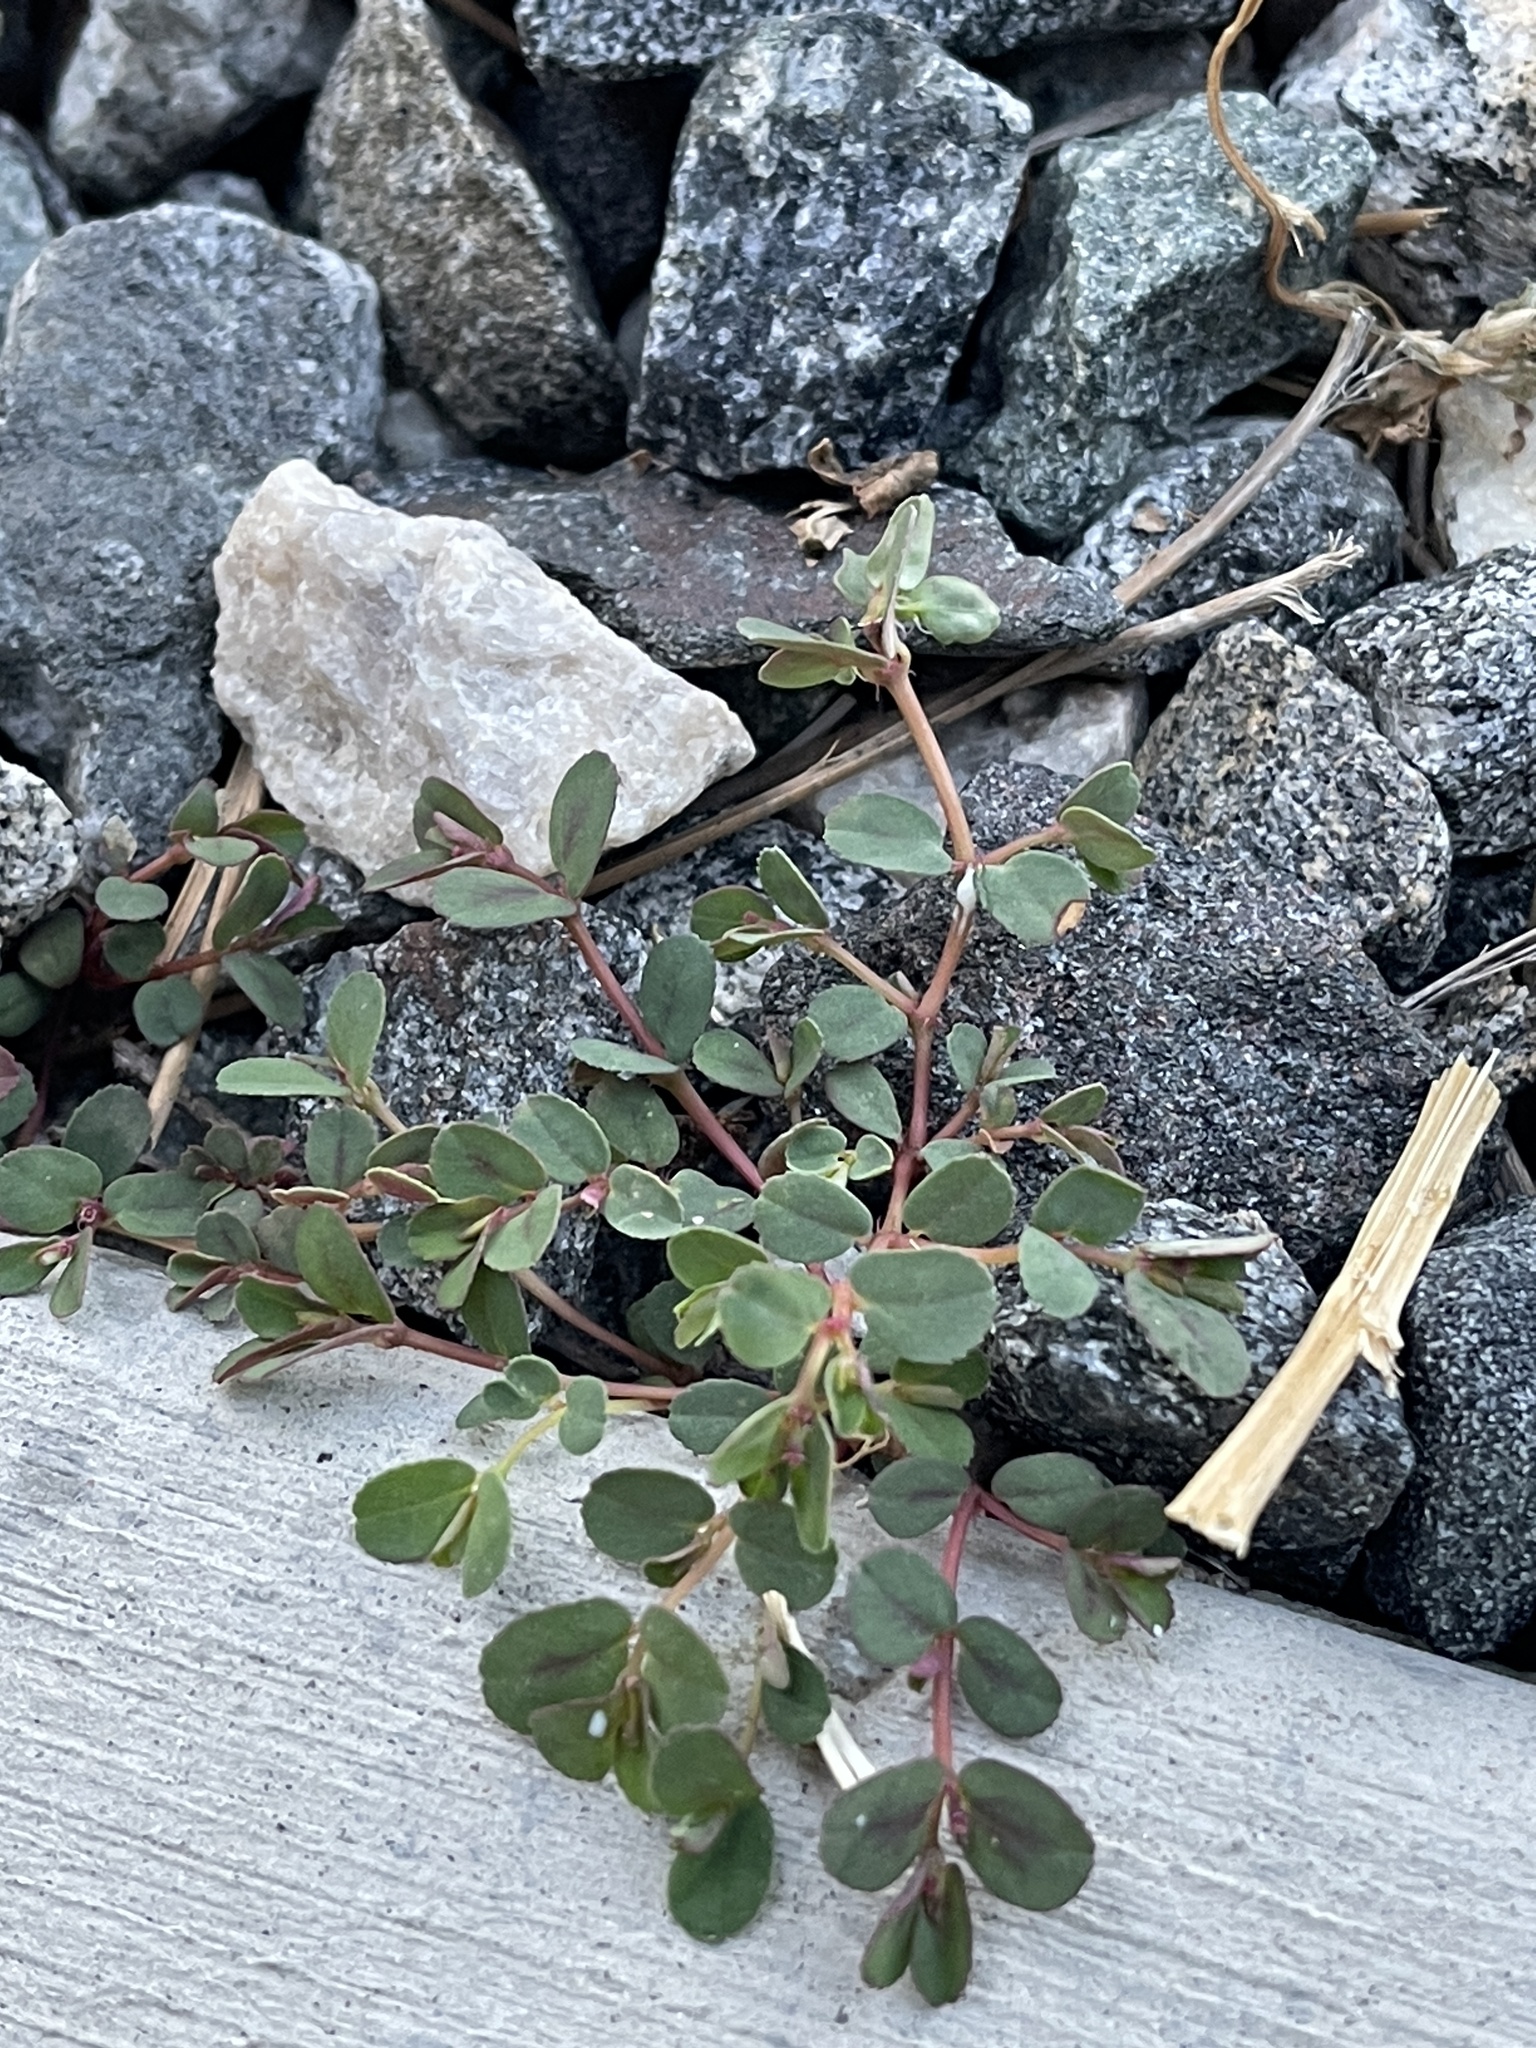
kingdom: Plantae
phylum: Tracheophyta
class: Magnoliopsida
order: Malpighiales
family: Euphorbiaceae
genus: Euphorbia
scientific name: Euphorbia serpillifolia
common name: Thyme-leaf spurge
